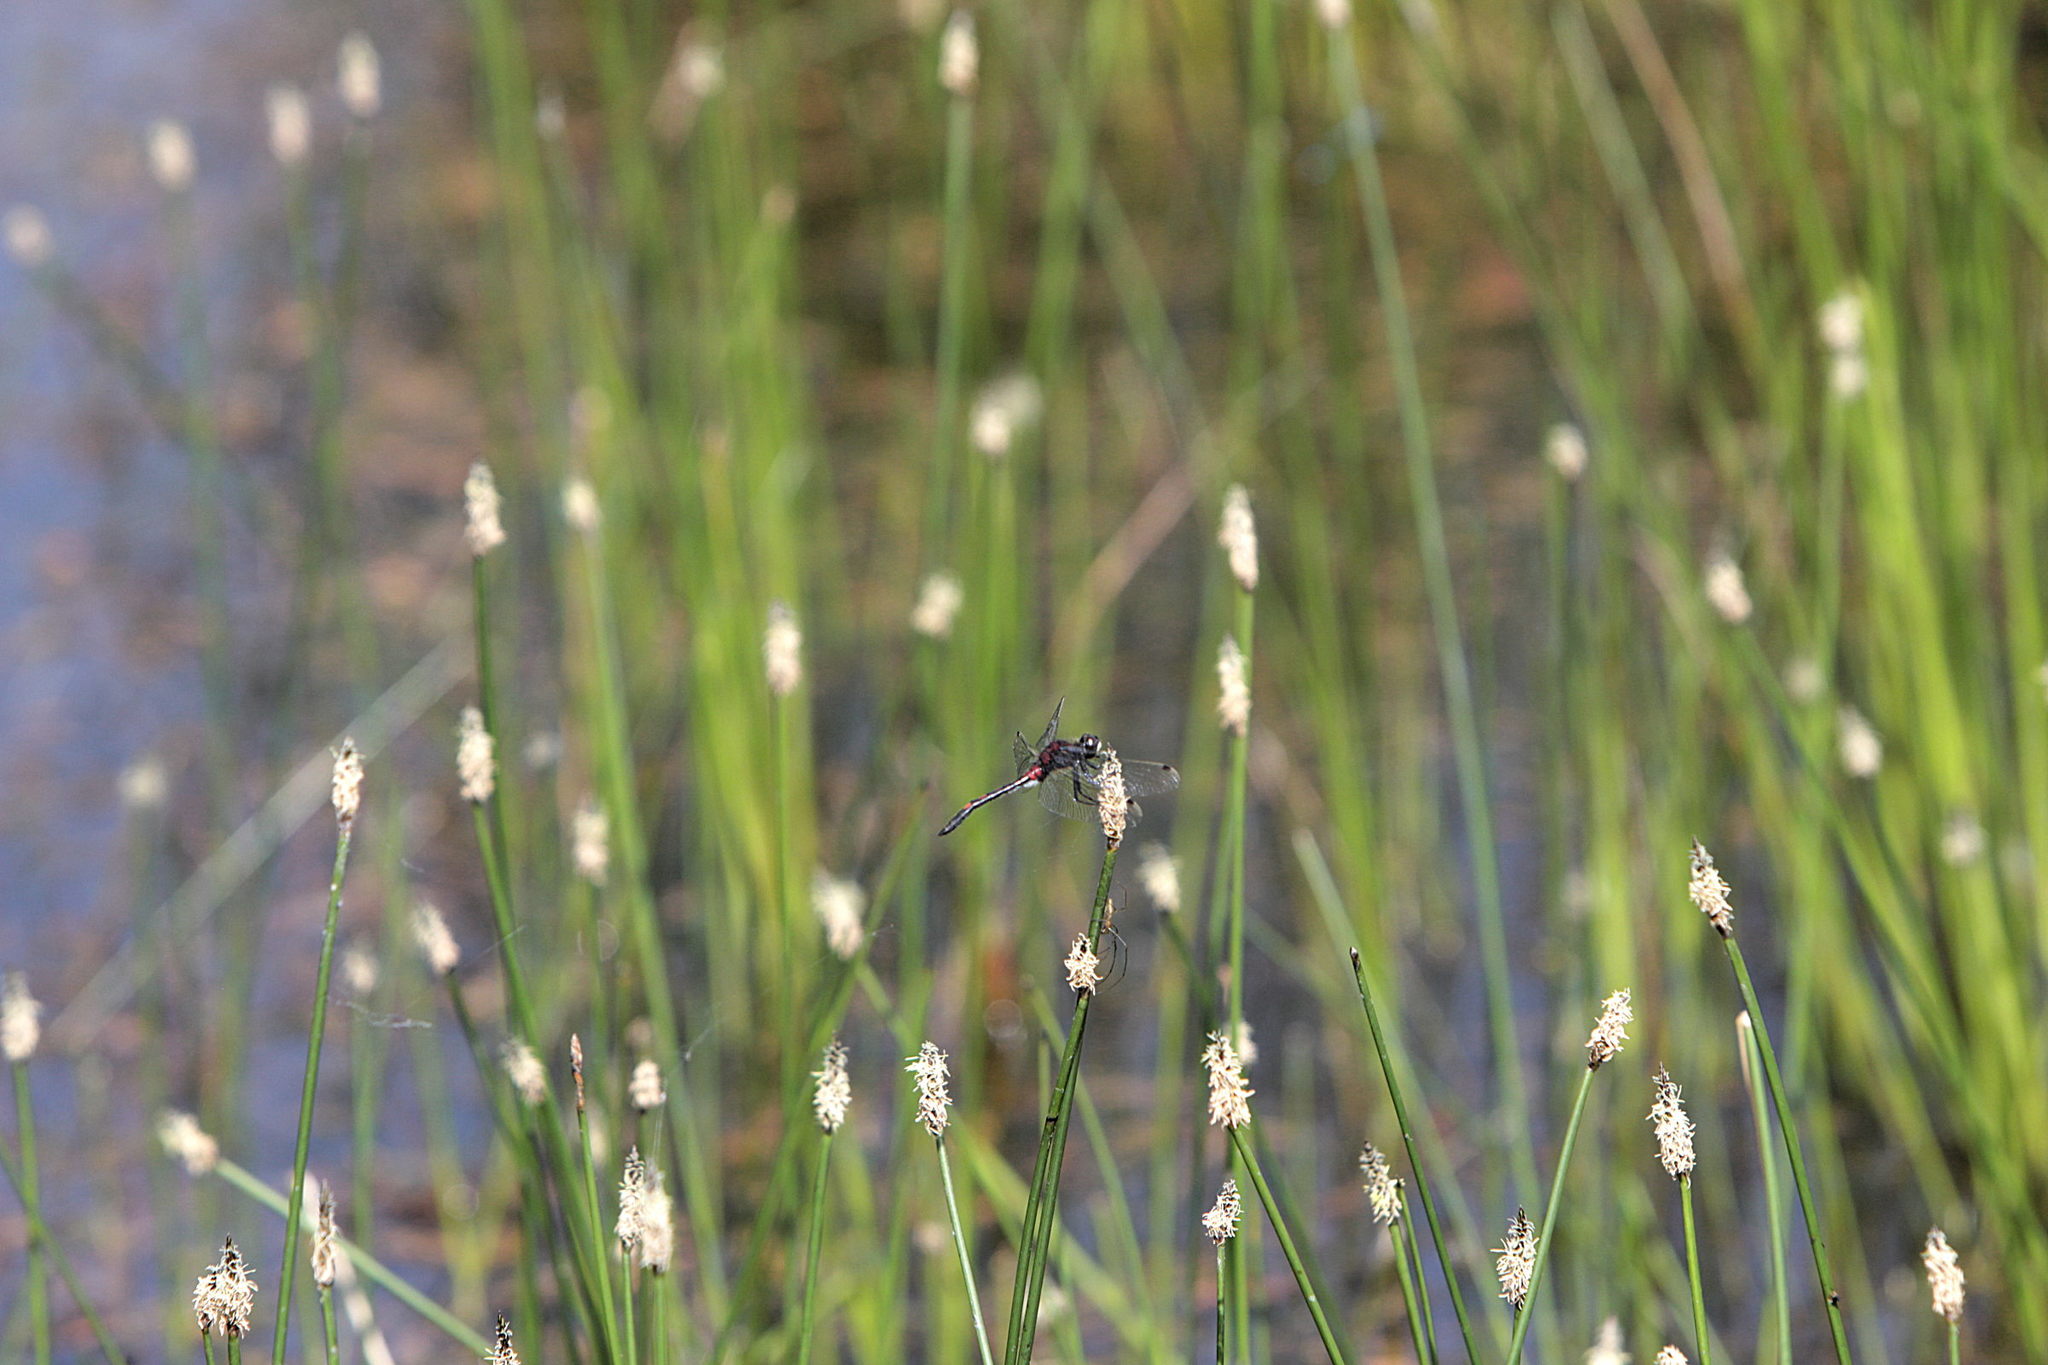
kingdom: Animalia
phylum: Arthropoda
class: Insecta
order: Odonata
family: Libellulidae
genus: Leucorrhinia
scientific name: Leucorrhinia dubia
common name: White-faced darter
